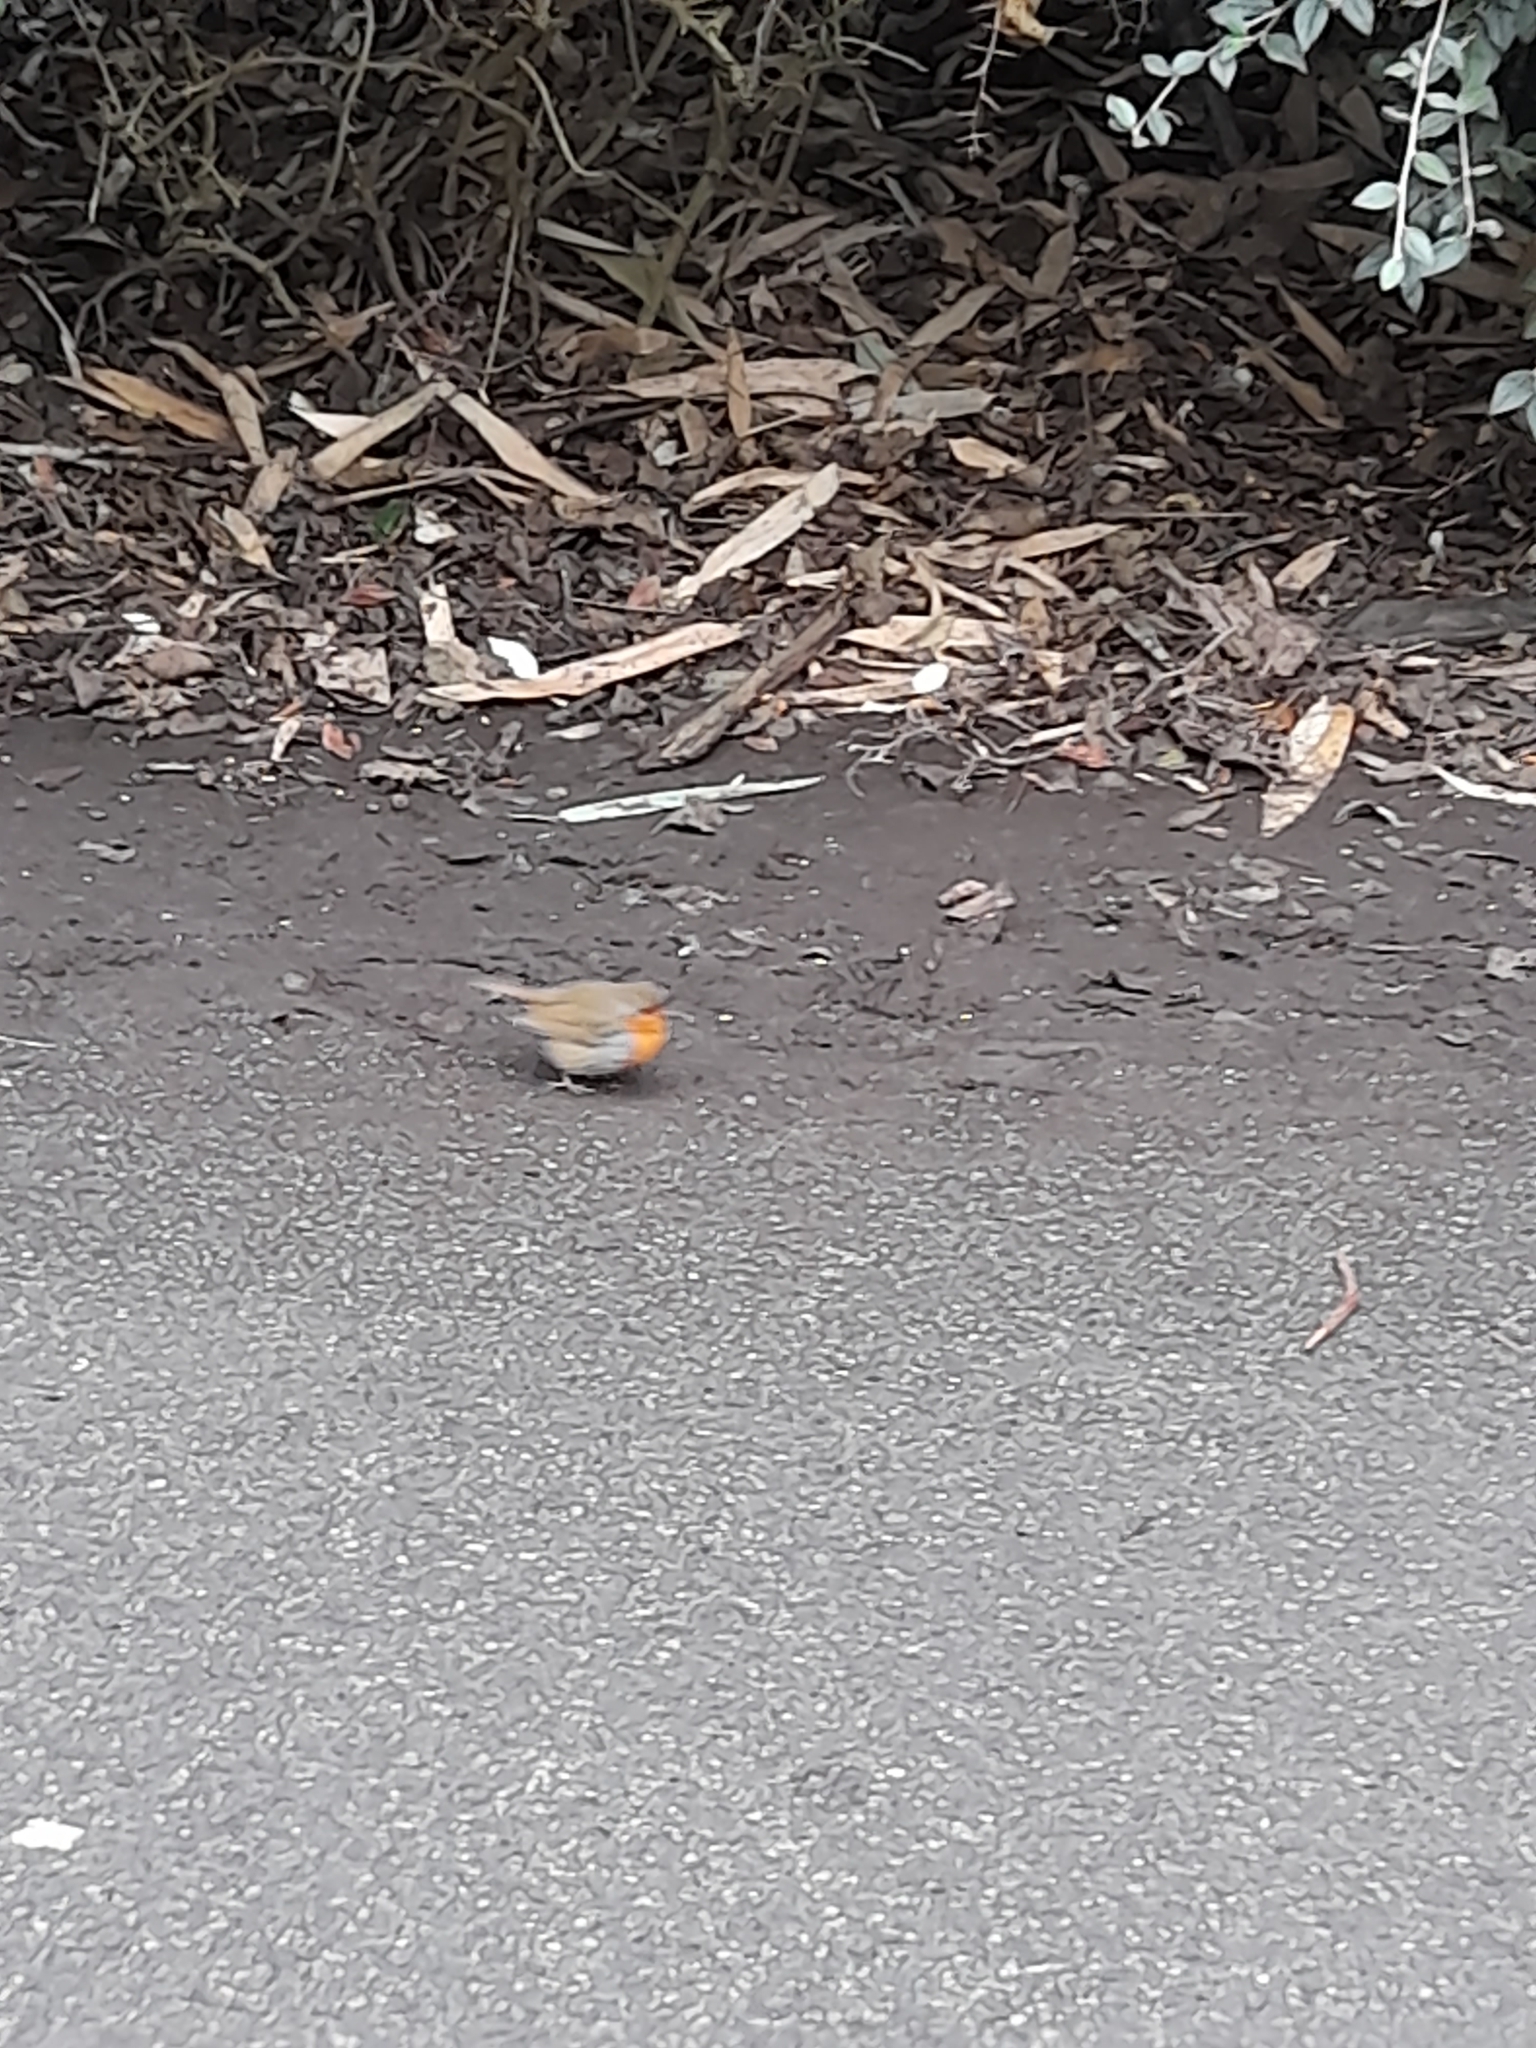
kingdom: Animalia
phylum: Chordata
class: Aves
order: Passeriformes
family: Muscicapidae
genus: Erithacus
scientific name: Erithacus rubecula
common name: European robin
